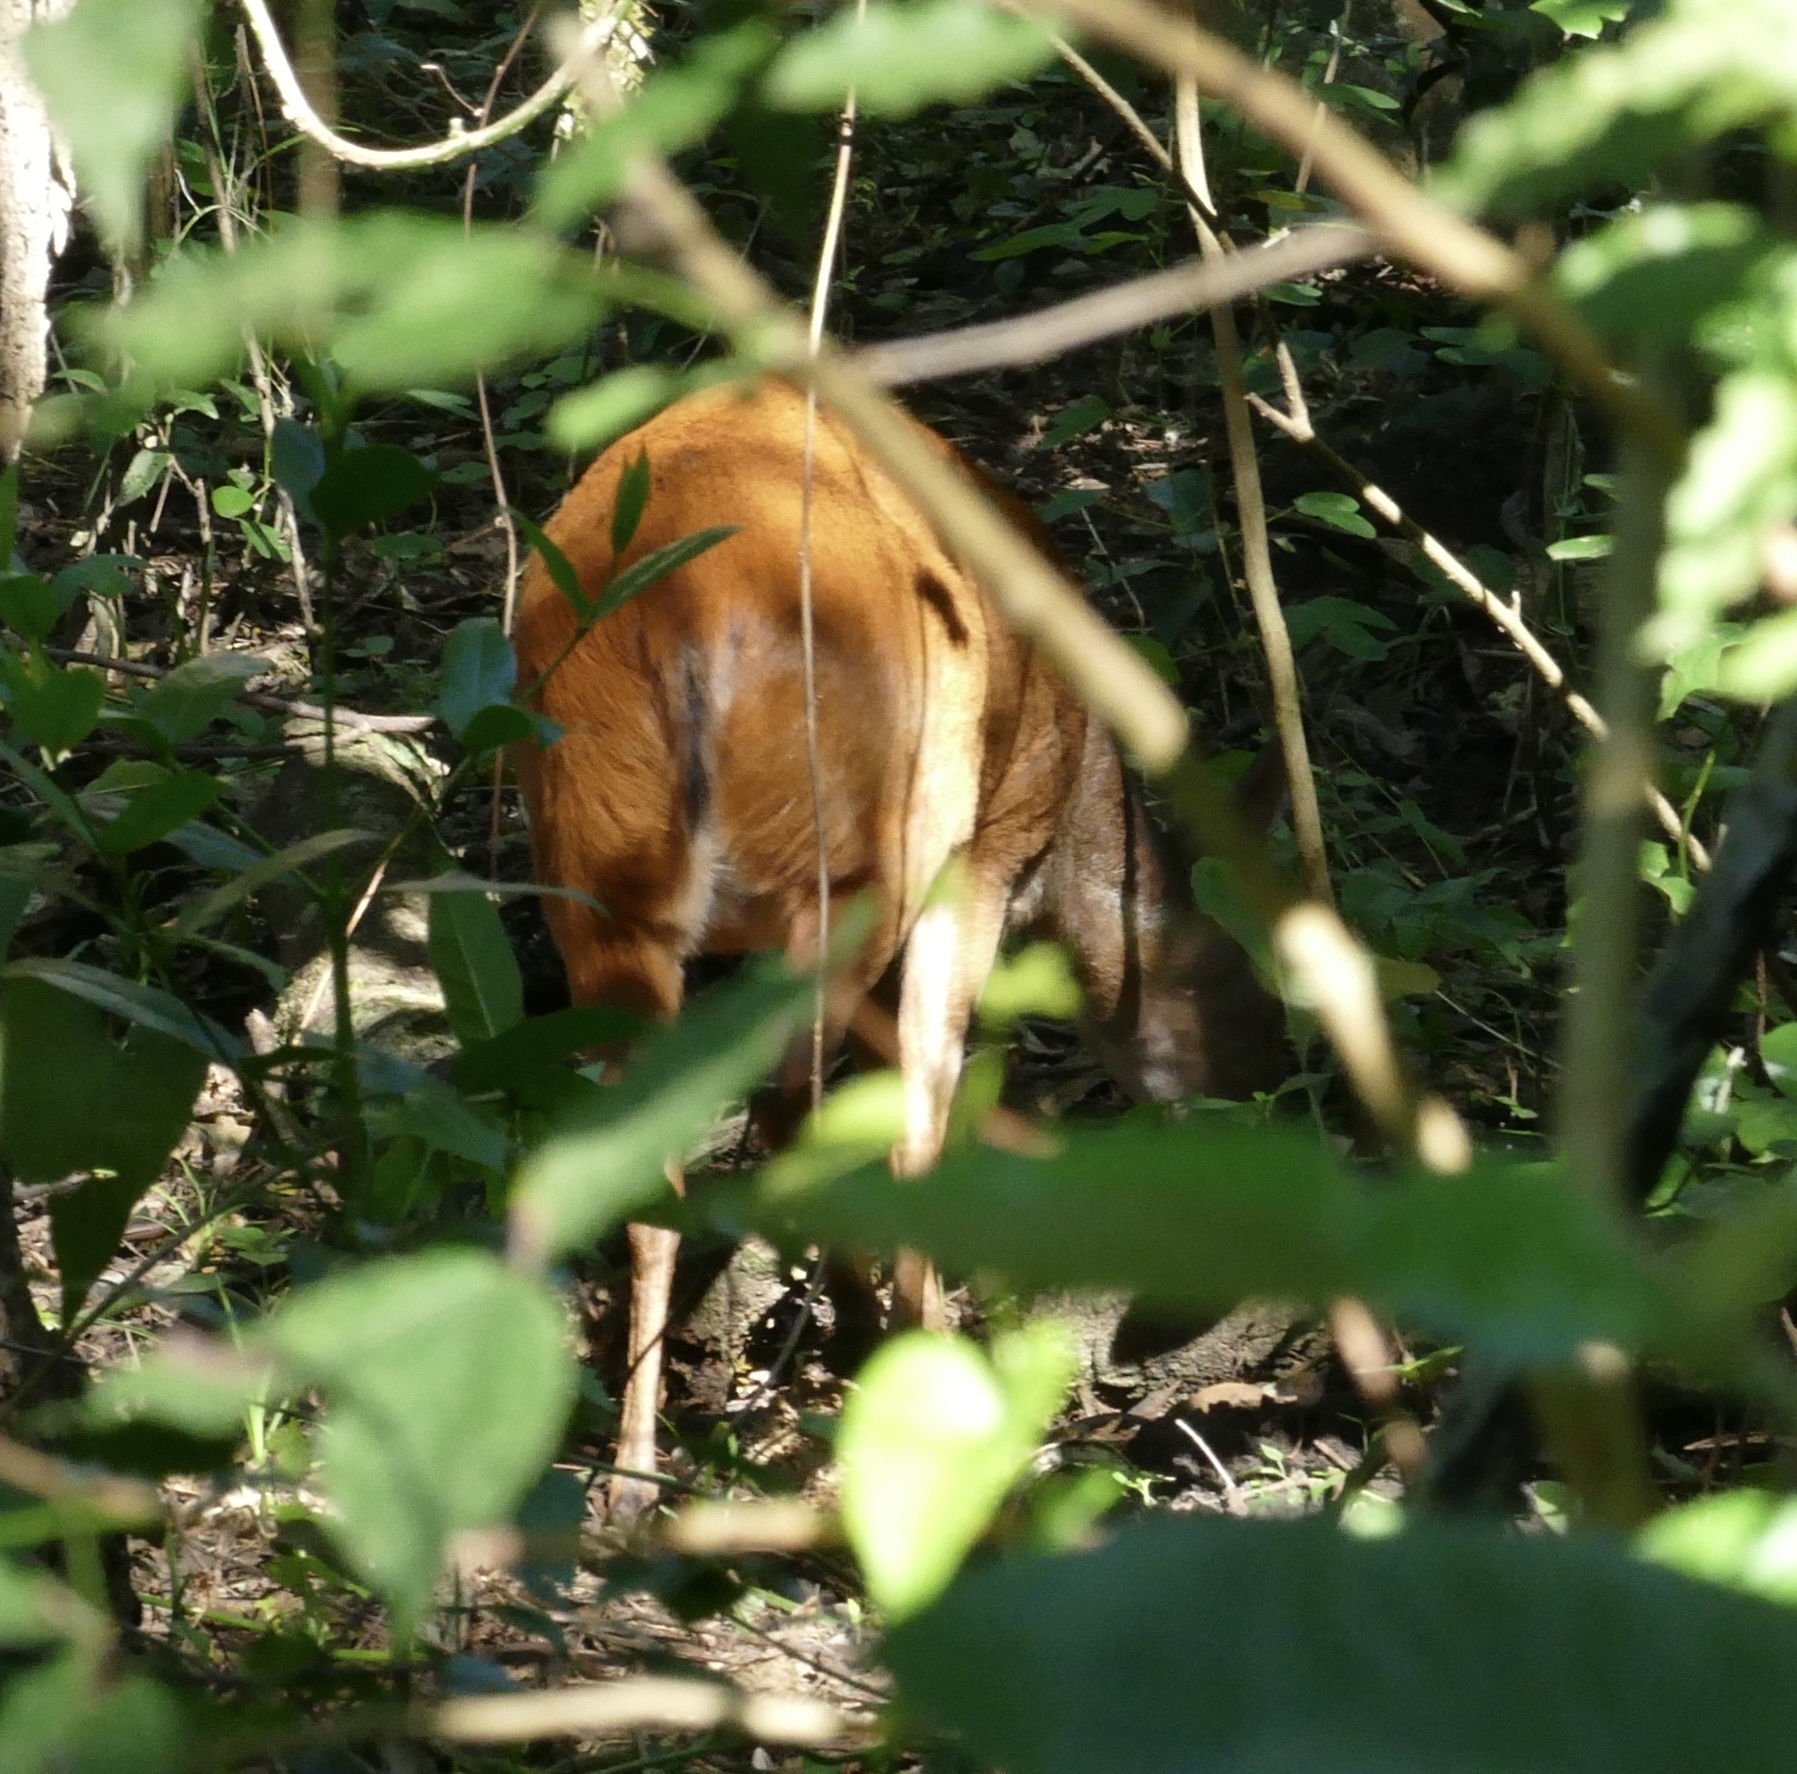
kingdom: Animalia
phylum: Chordata
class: Mammalia
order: Artiodactyla
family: Bovidae
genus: Cephalophus
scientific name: Cephalophus natalensis
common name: Red duiker
